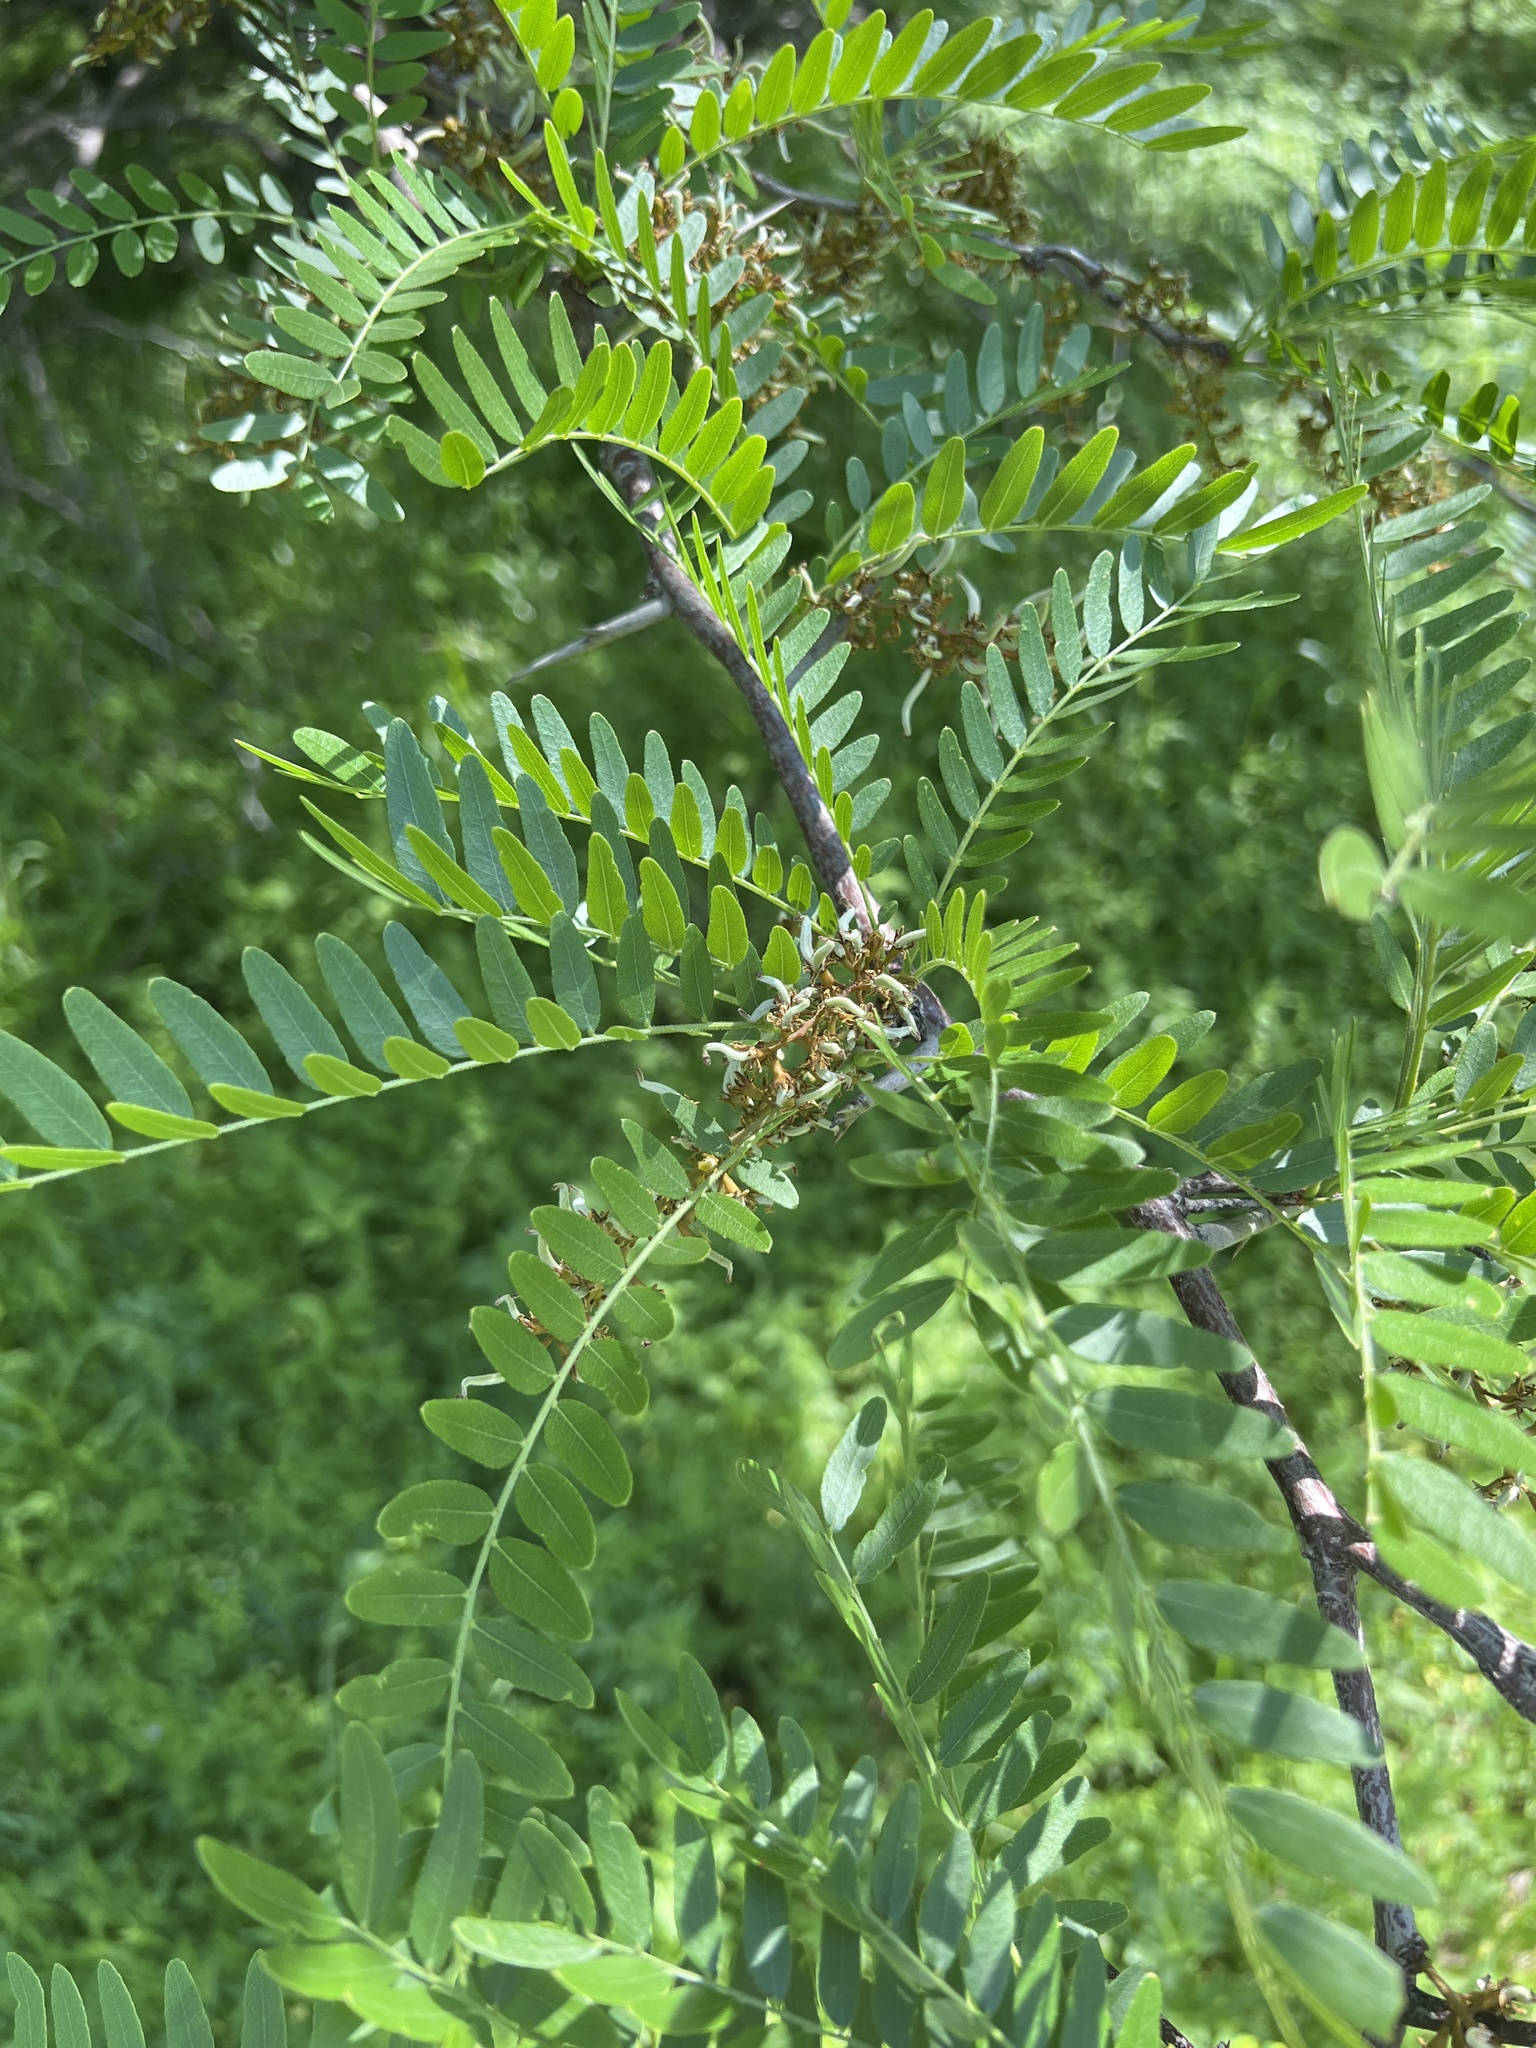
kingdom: Plantae
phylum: Tracheophyta
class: Magnoliopsida
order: Fabales
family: Fabaceae
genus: Gleditsia
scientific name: Gleditsia triacanthos
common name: Common honeylocust
